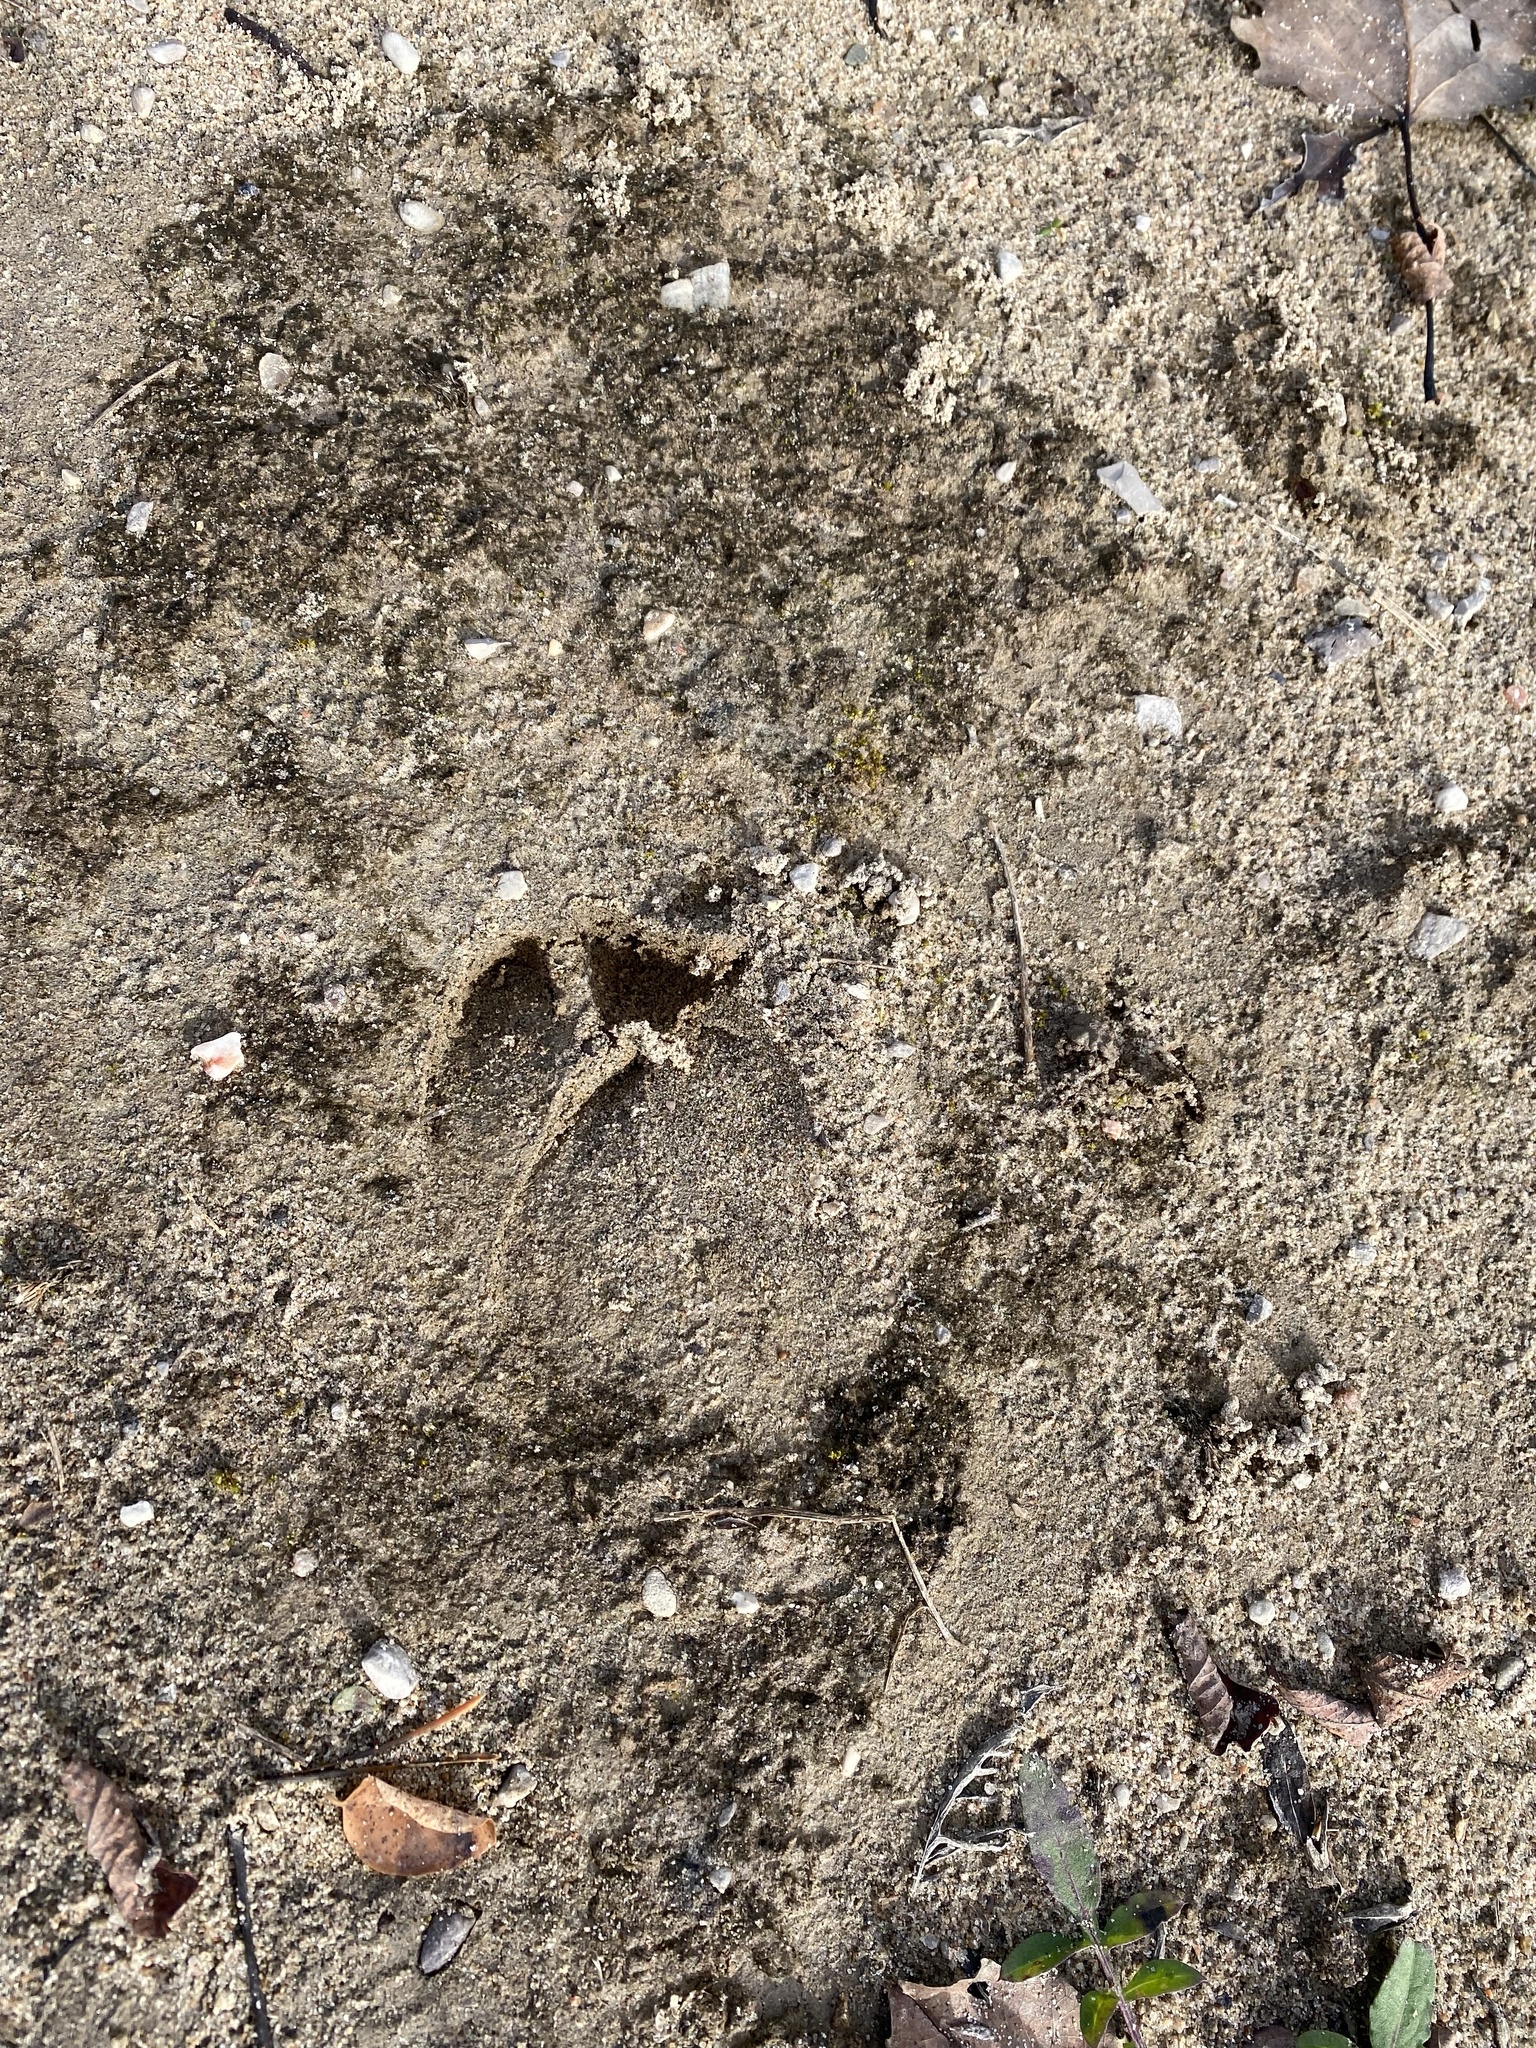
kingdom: Animalia
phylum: Chordata
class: Mammalia
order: Artiodactyla
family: Cervidae
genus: Odocoileus
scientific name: Odocoileus virginianus
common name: White-tailed deer
